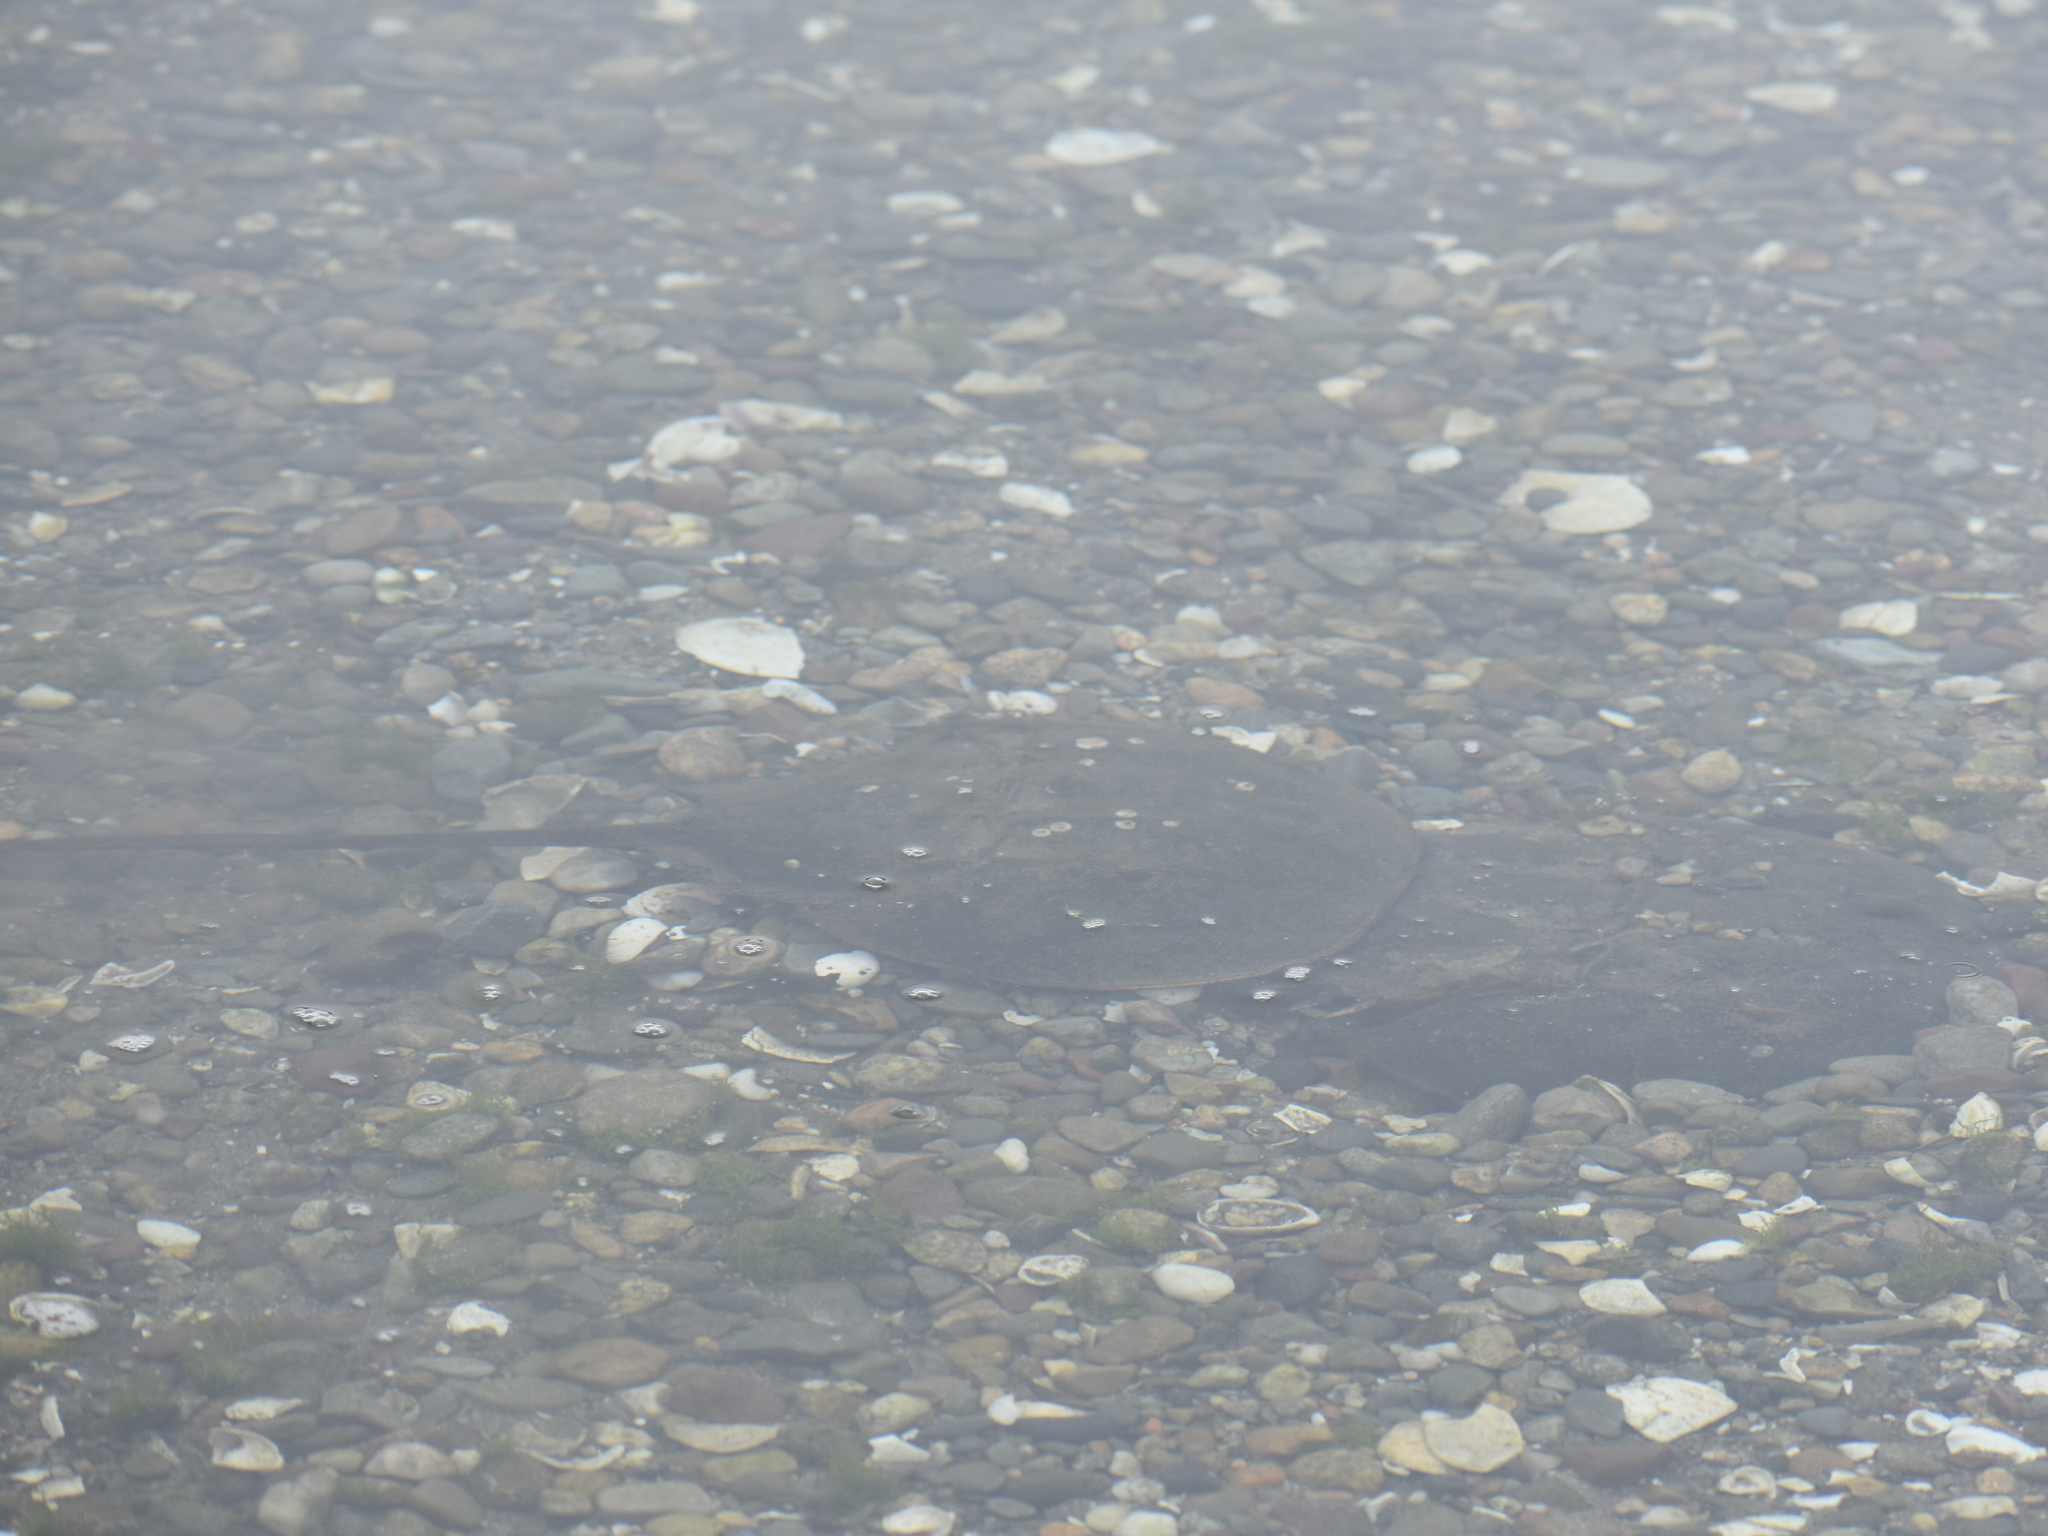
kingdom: Animalia
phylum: Arthropoda
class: Merostomata
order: Xiphosurida
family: Limulidae
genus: Limulus
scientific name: Limulus polyphemus
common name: Horseshoe crab
